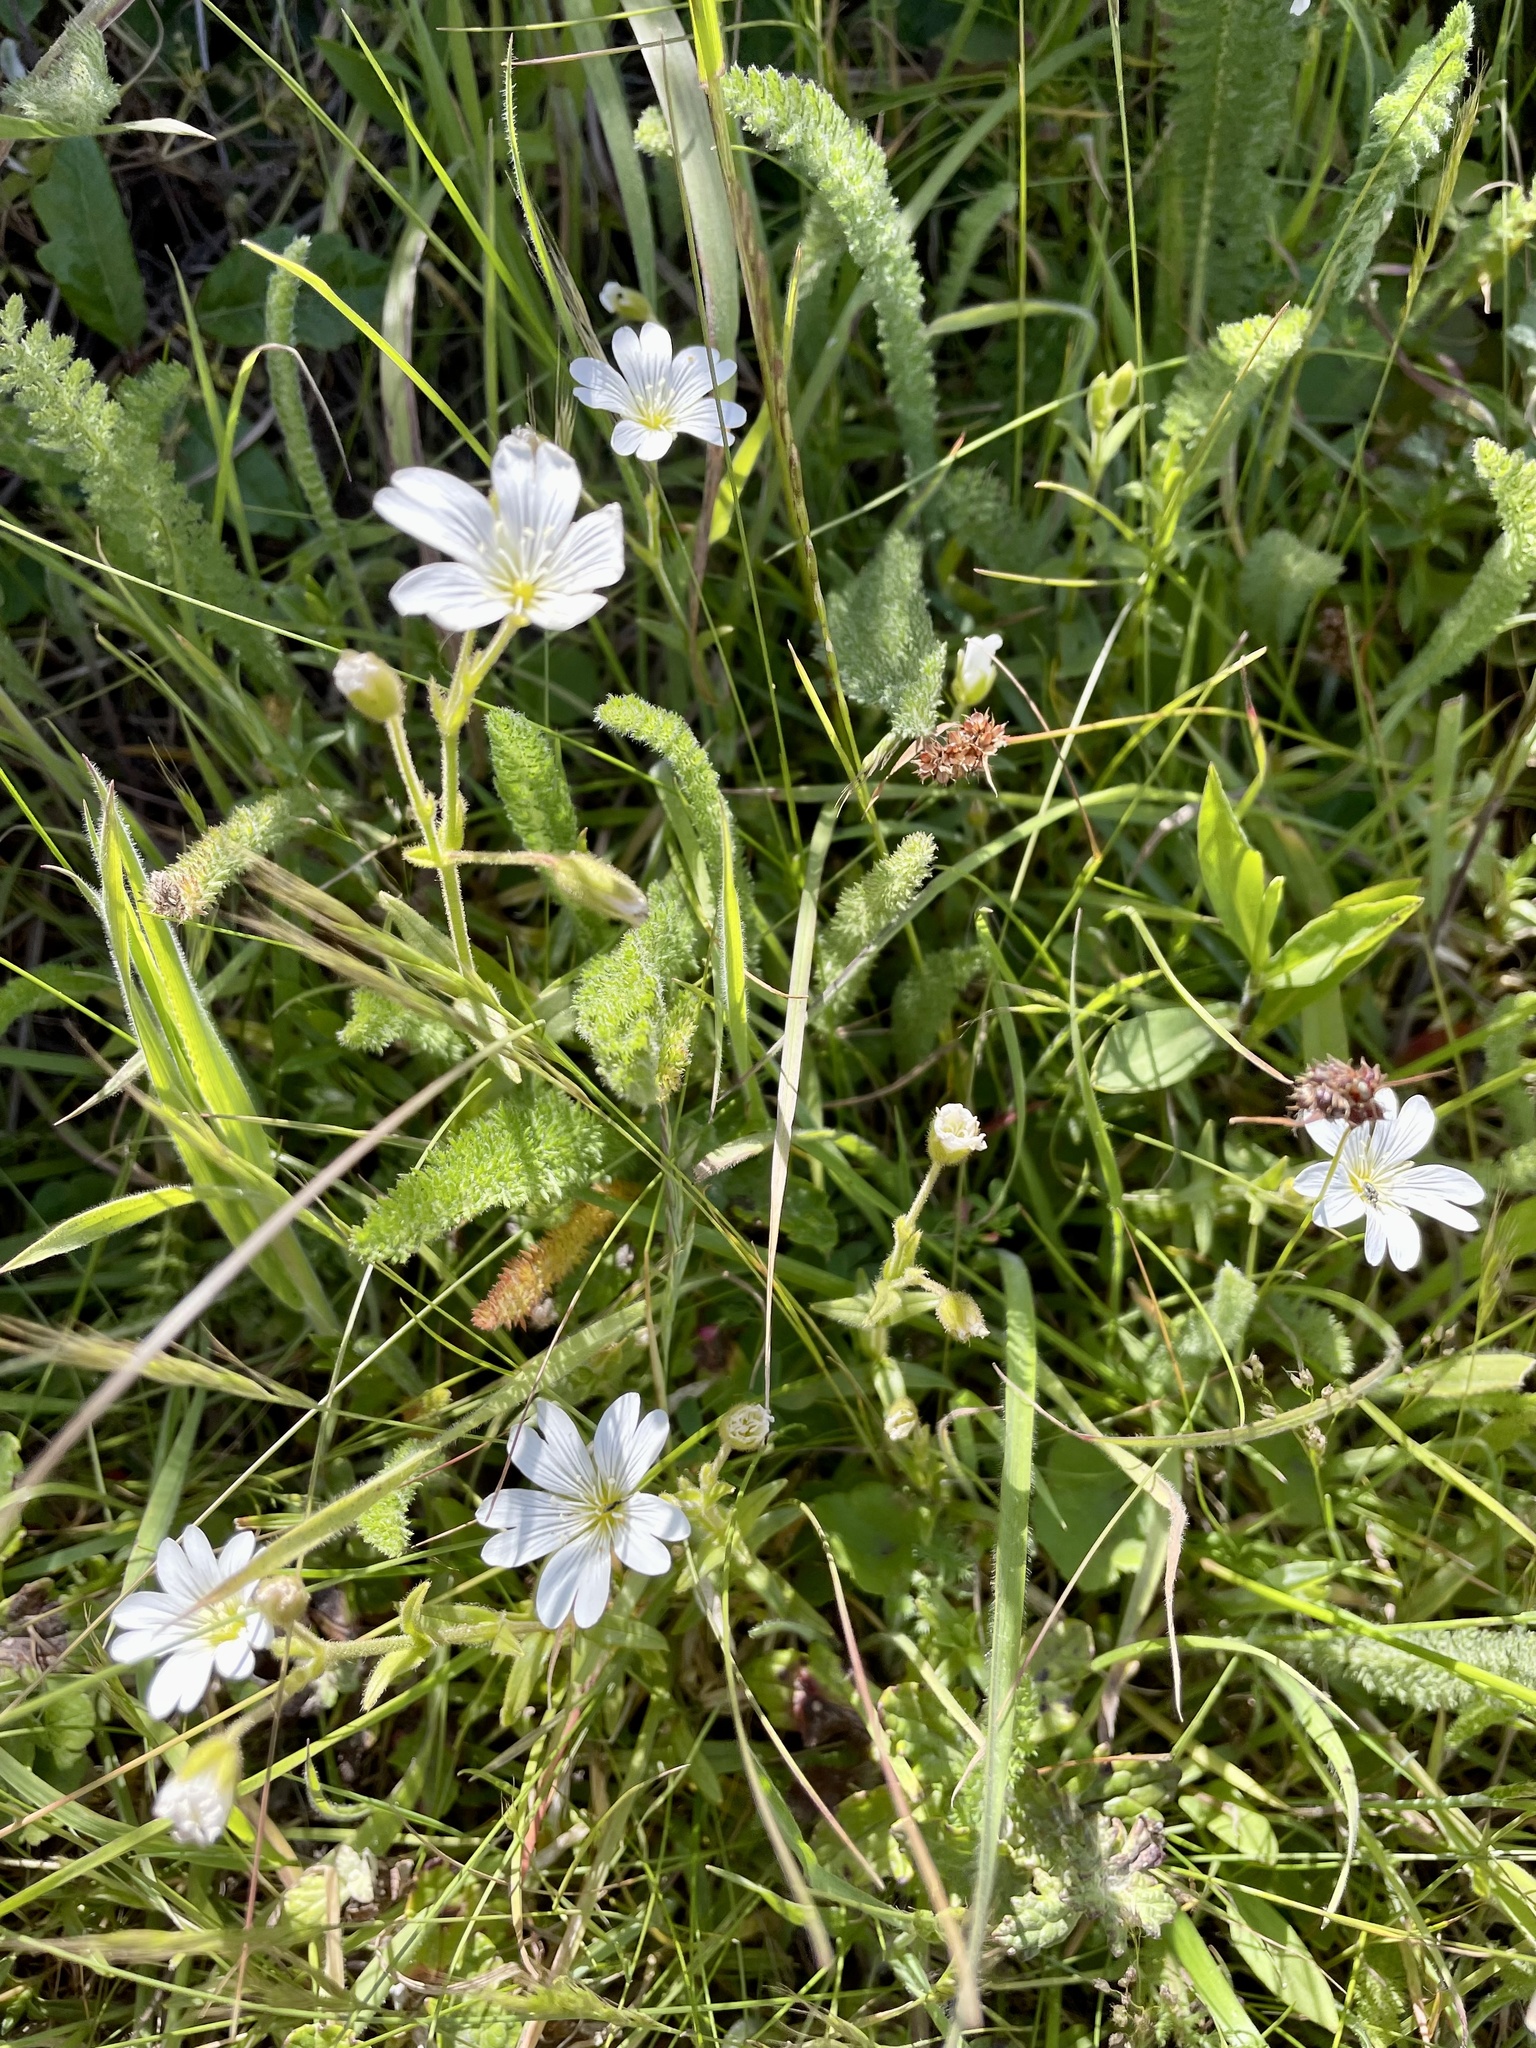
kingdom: Plantae
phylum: Tracheophyta
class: Magnoliopsida
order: Caryophyllales
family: Caryophyllaceae
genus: Cerastium
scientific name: Cerastium arvense
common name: Field mouse-ear
